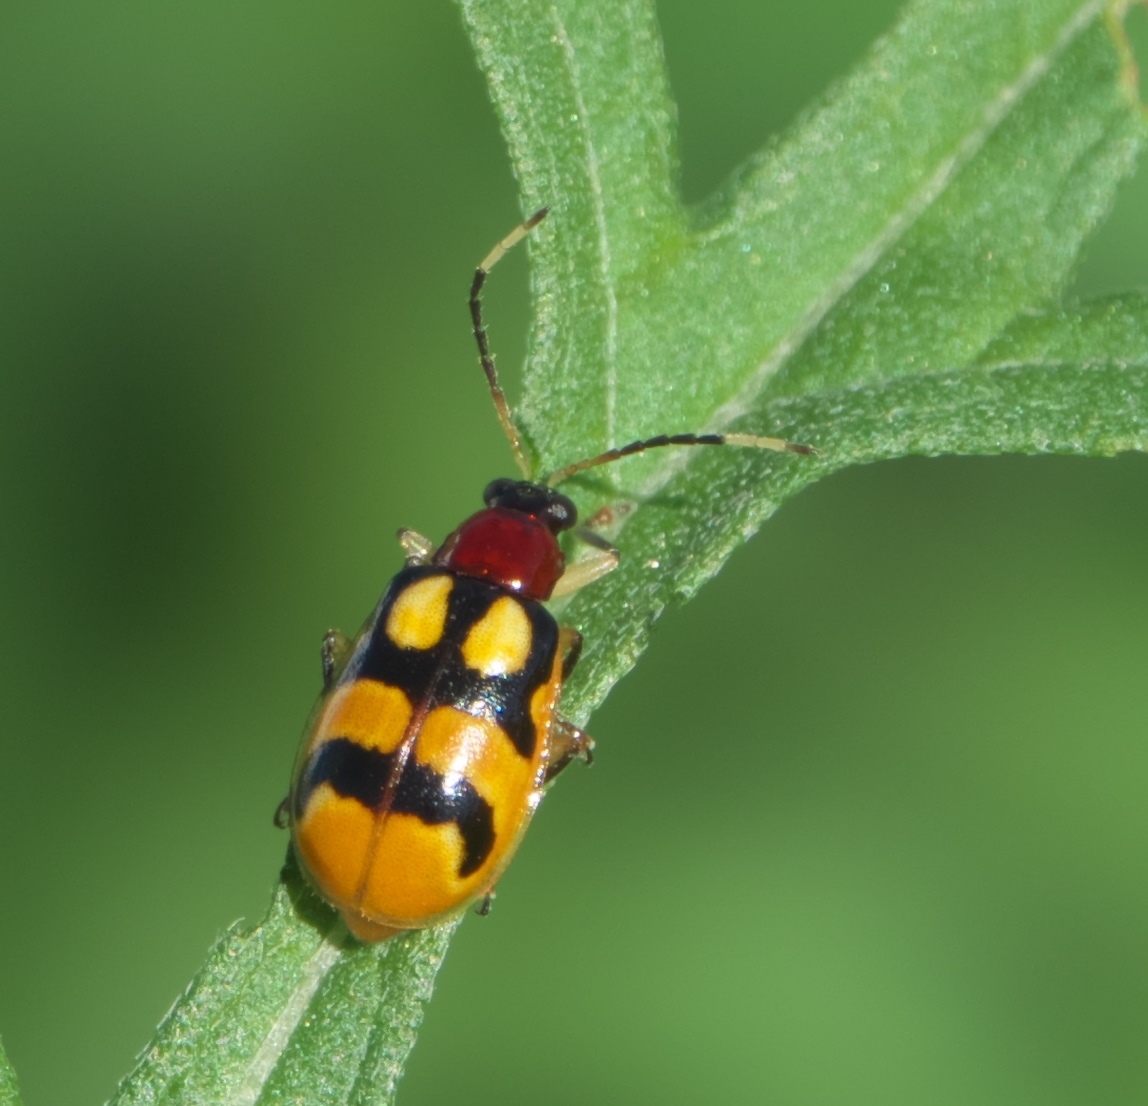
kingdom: Animalia
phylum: Arthropoda
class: Insecta
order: Coleoptera
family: Chrysomelidae
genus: Diabrotica
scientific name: Diabrotica adelpha
